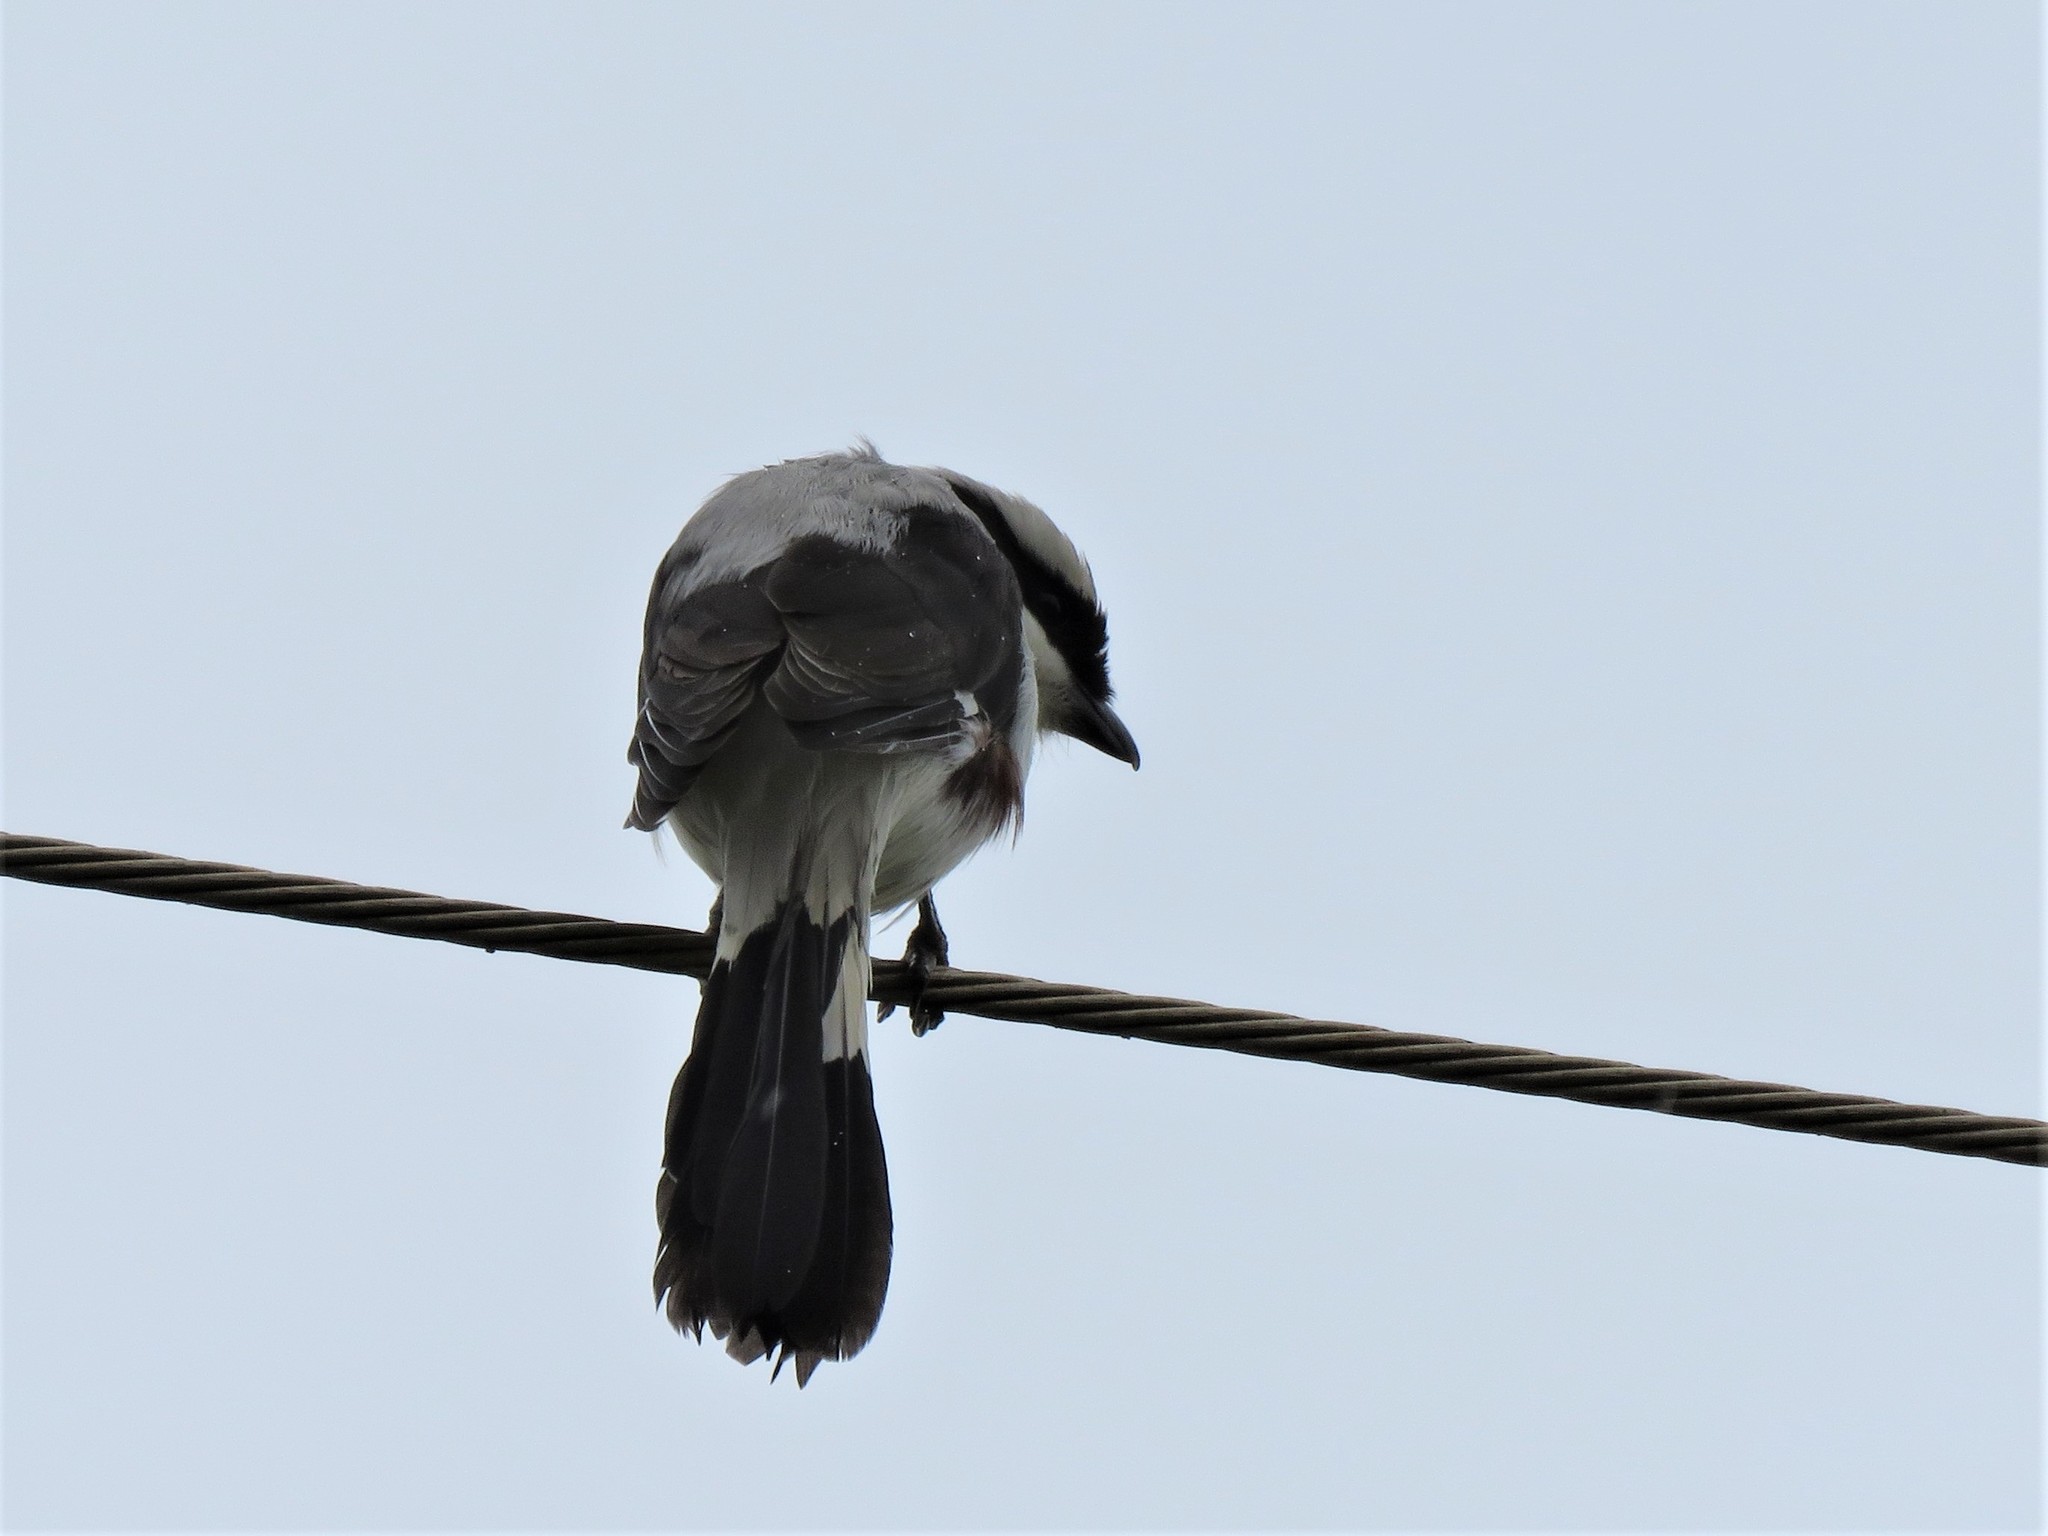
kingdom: Animalia
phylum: Chordata
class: Aves
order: Passeriformes
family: Laniidae
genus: Lanius
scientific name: Lanius excubitoroides
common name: Grey-backed fiscal
